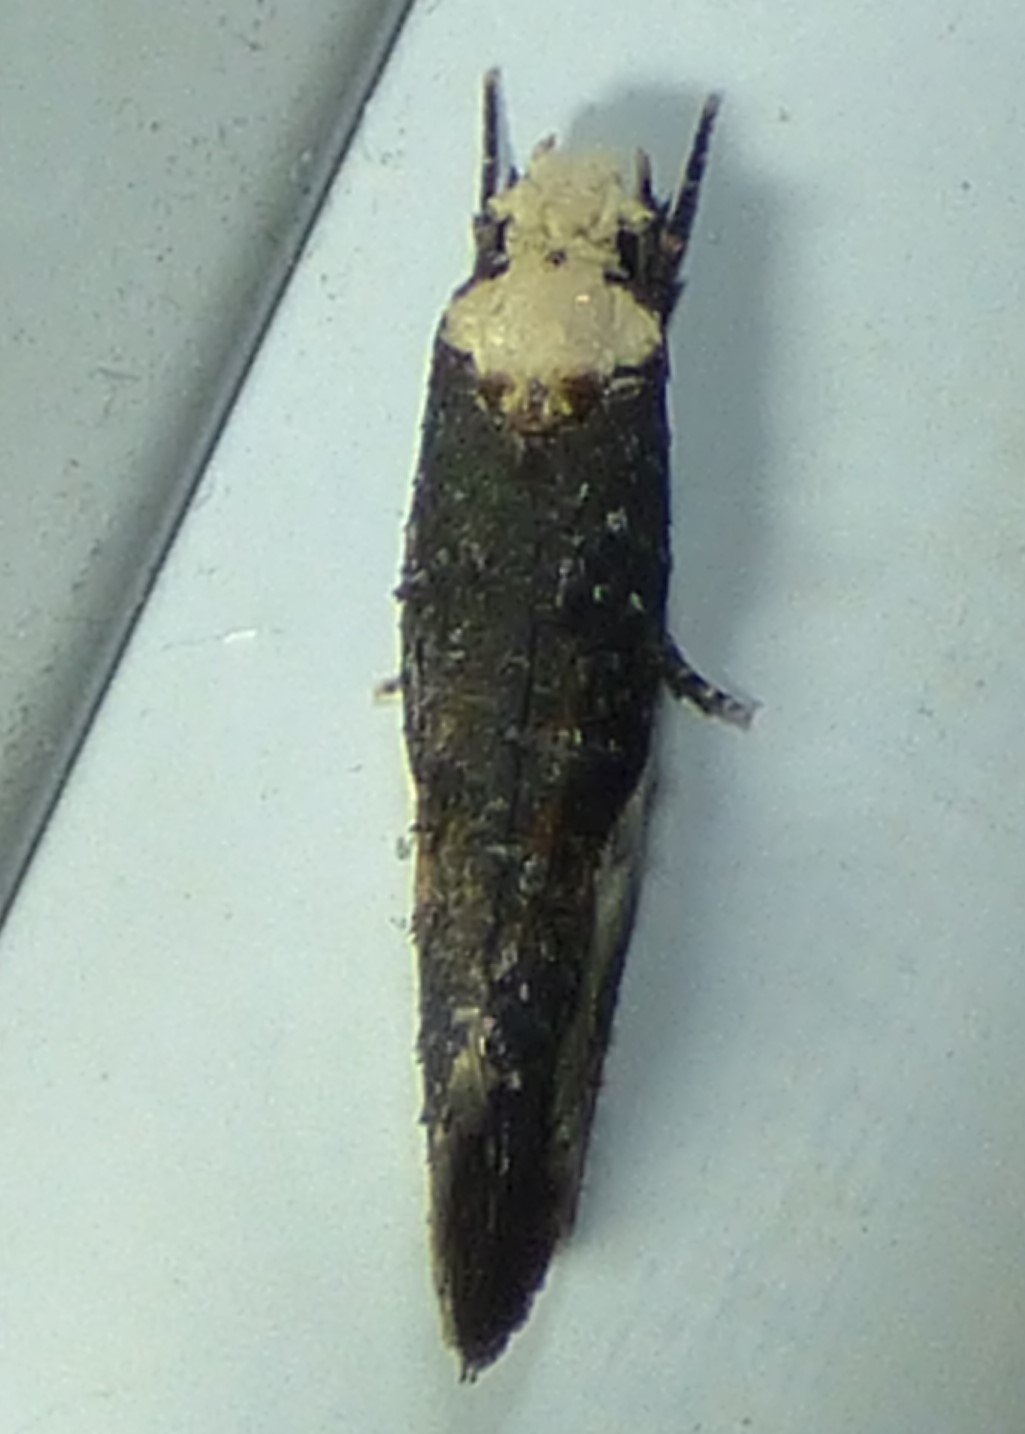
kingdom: Animalia
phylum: Arthropoda
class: Insecta
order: Lepidoptera
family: Tineidae
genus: Monopis
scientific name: Monopis longella
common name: Pavlovski's monopis moth
